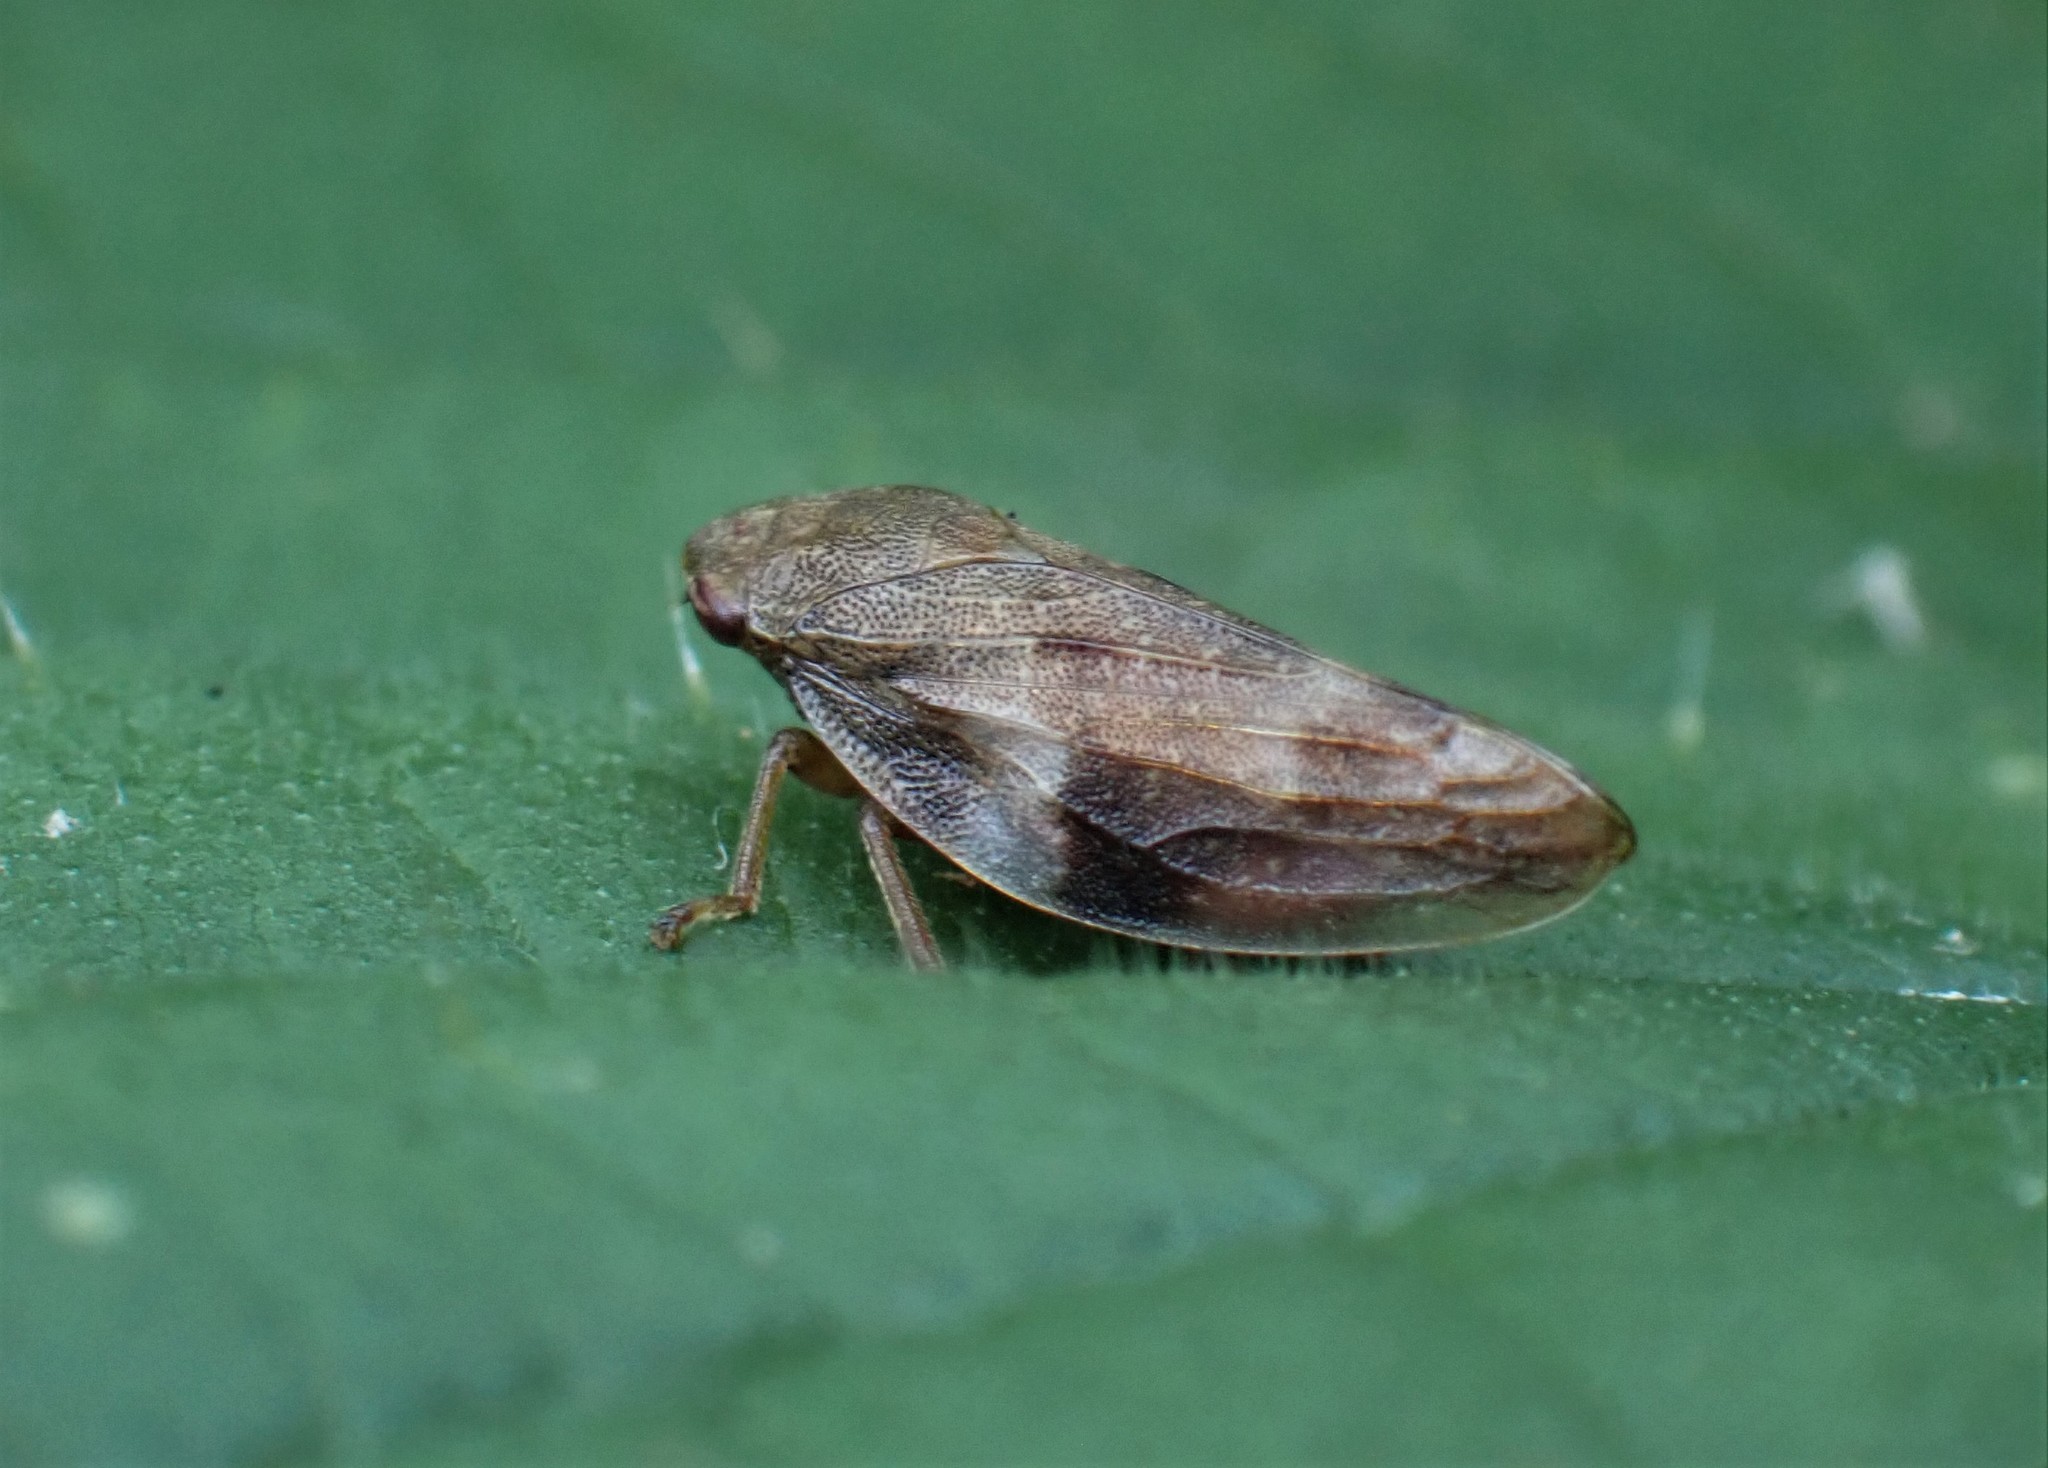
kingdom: Animalia
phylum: Arthropoda
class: Insecta
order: Hemiptera
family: Aphrophoridae
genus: Aphrophora
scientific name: Aphrophora alni
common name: European alder spittlebug
